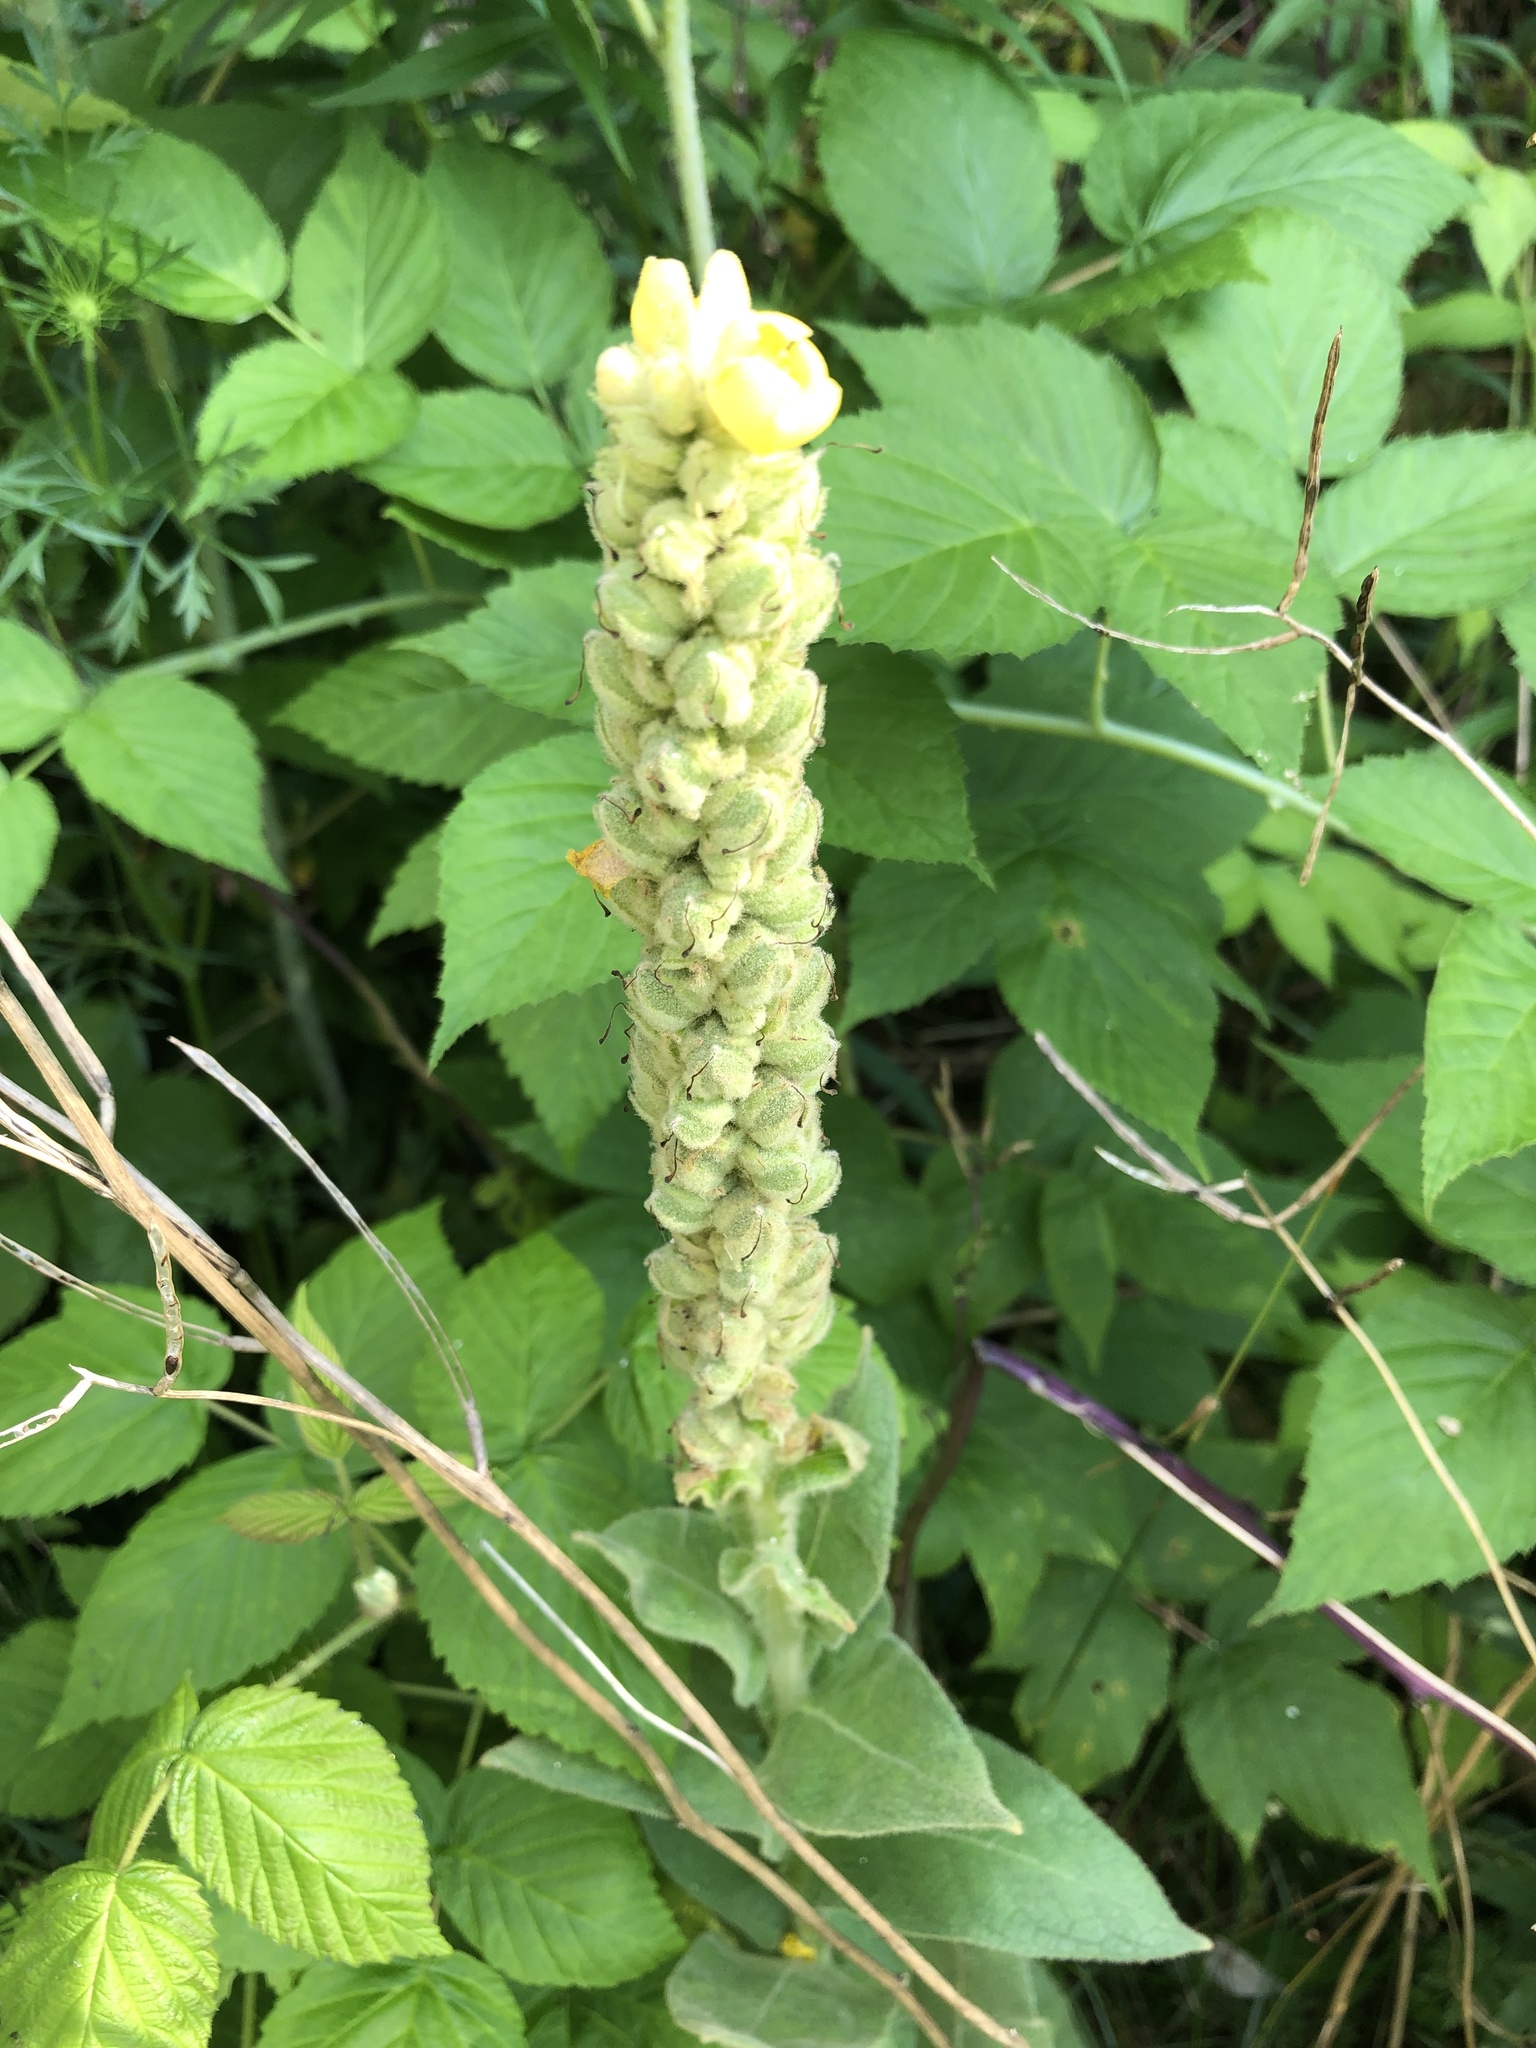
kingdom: Plantae
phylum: Tracheophyta
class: Magnoliopsida
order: Lamiales
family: Scrophulariaceae
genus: Verbascum
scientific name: Verbascum thapsus
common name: Common mullein
